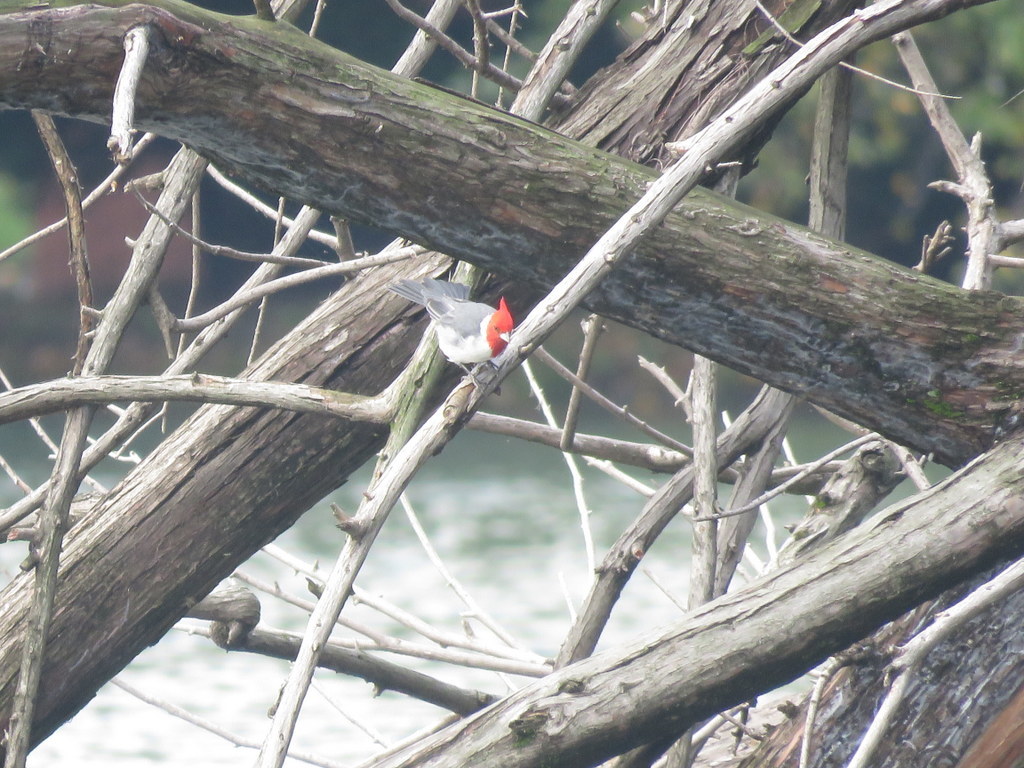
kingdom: Animalia
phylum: Chordata
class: Aves
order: Passeriformes
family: Thraupidae
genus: Paroaria
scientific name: Paroaria coronata
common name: Red-crested cardinal
